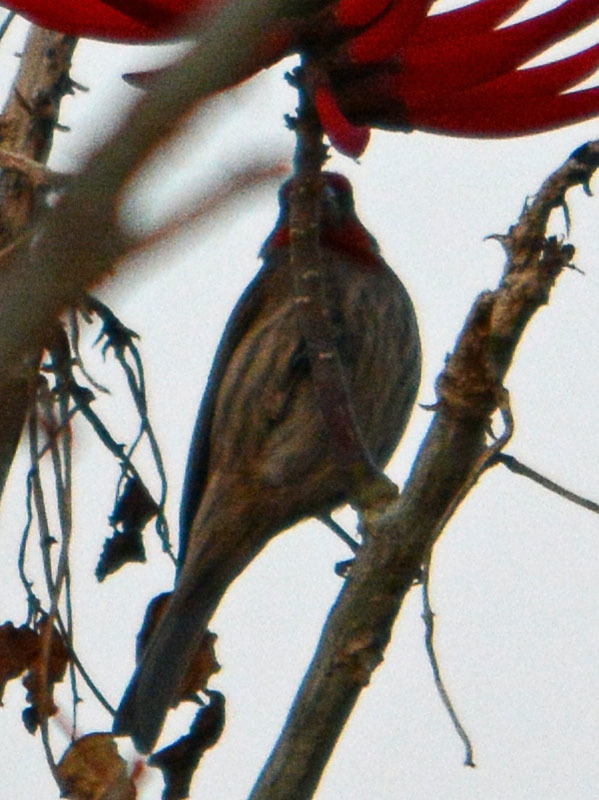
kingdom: Animalia
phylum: Chordata
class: Aves
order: Passeriformes
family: Fringillidae
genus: Haemorhous
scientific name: Haemorhous mexicanus
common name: House finch
